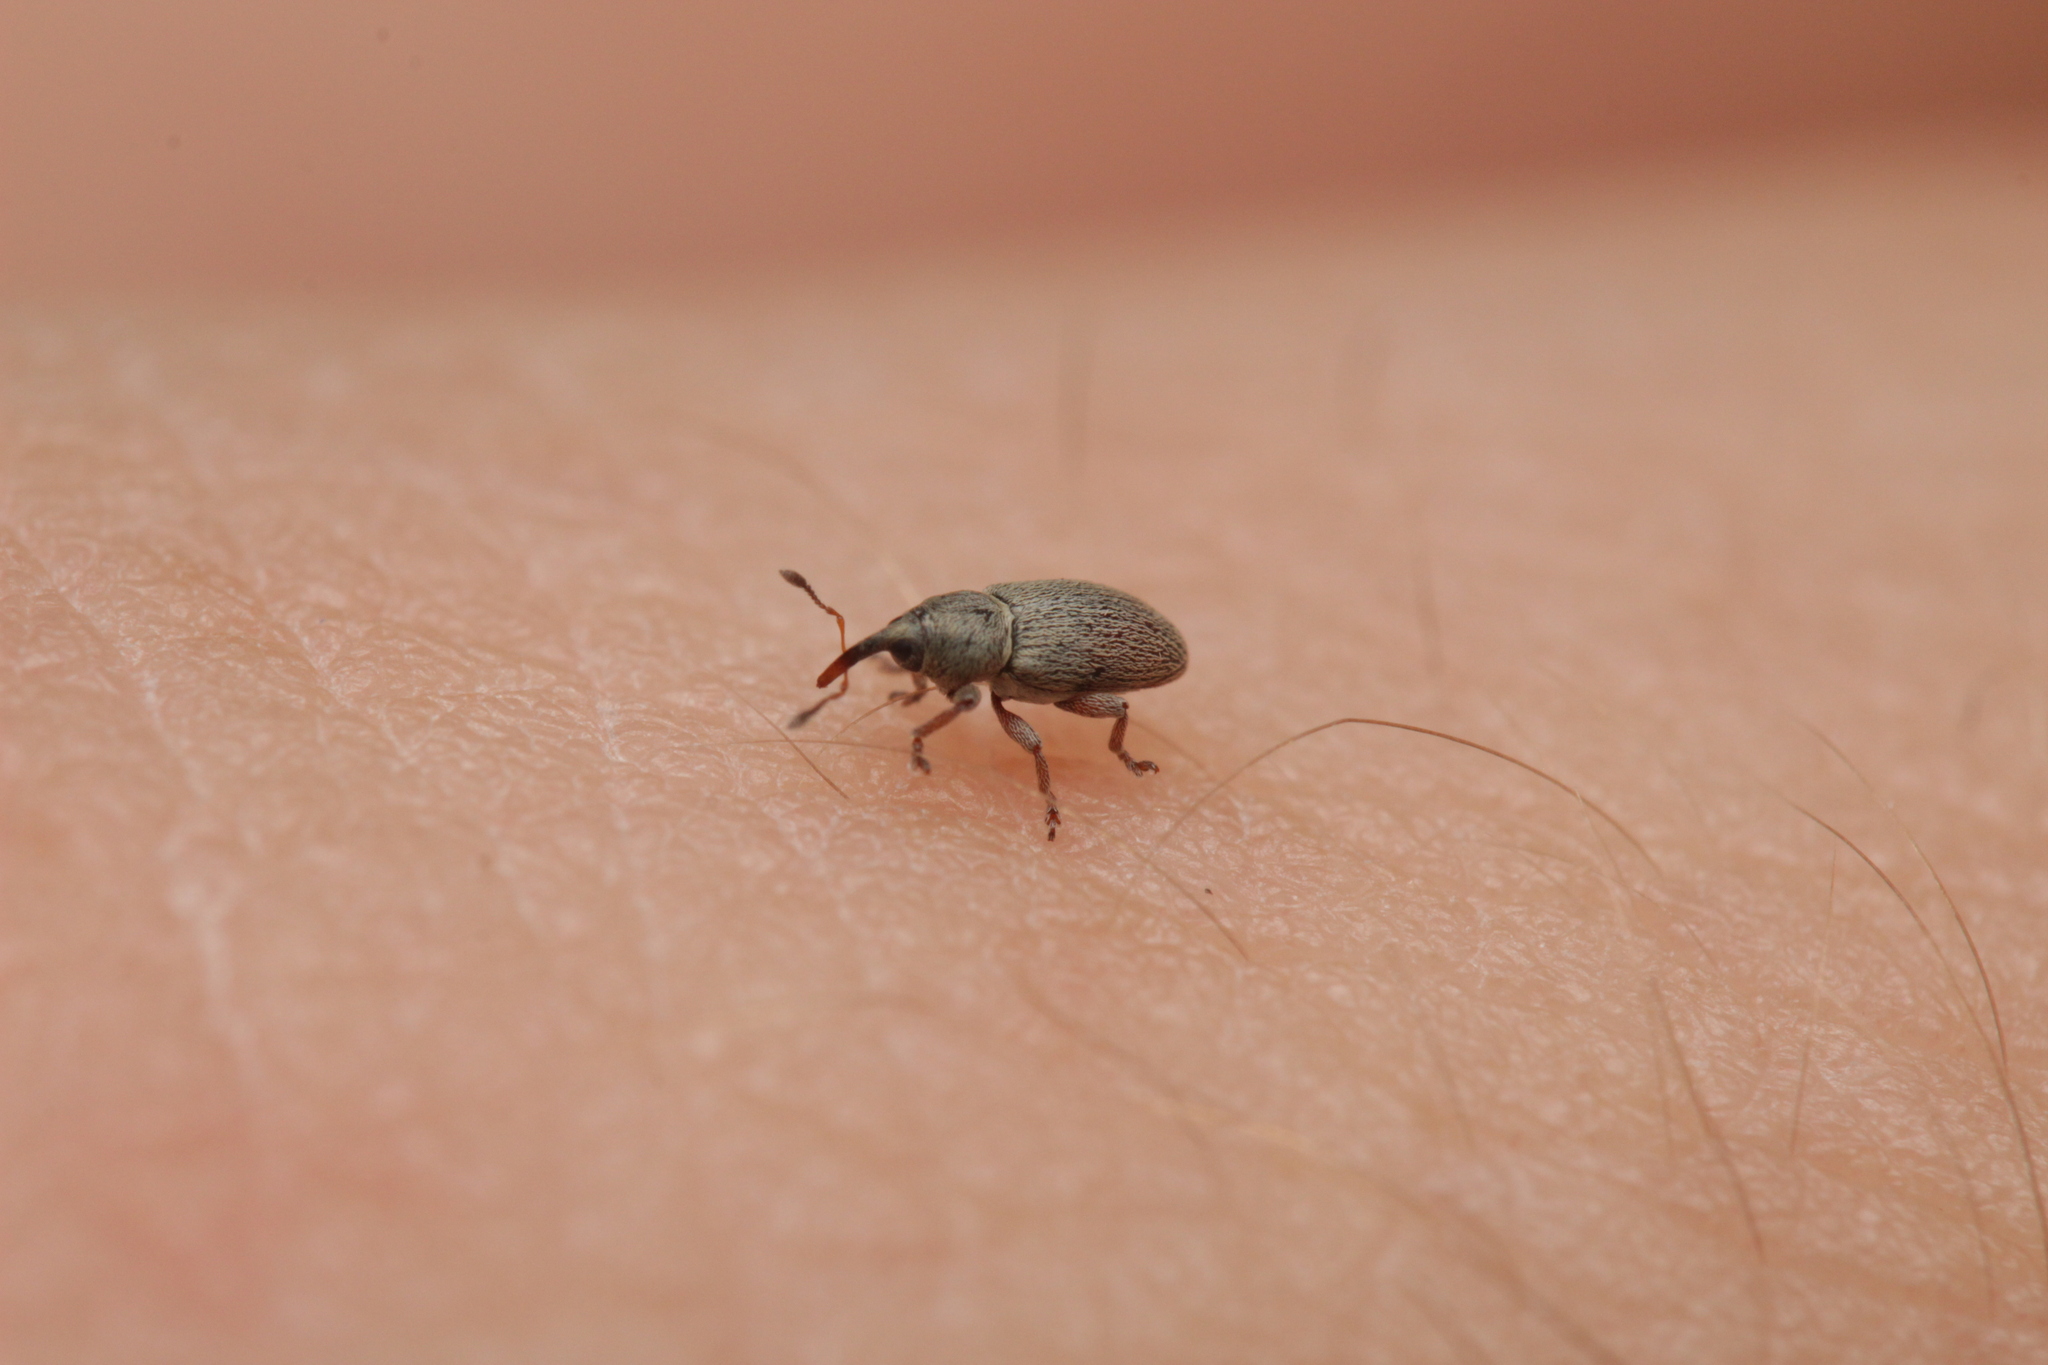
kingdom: Animalia
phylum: Arthropoda
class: Insecta
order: Coleoptera
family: Curculionidae
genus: Tychius
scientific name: Tychius picirostris
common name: Clover seed weevil
